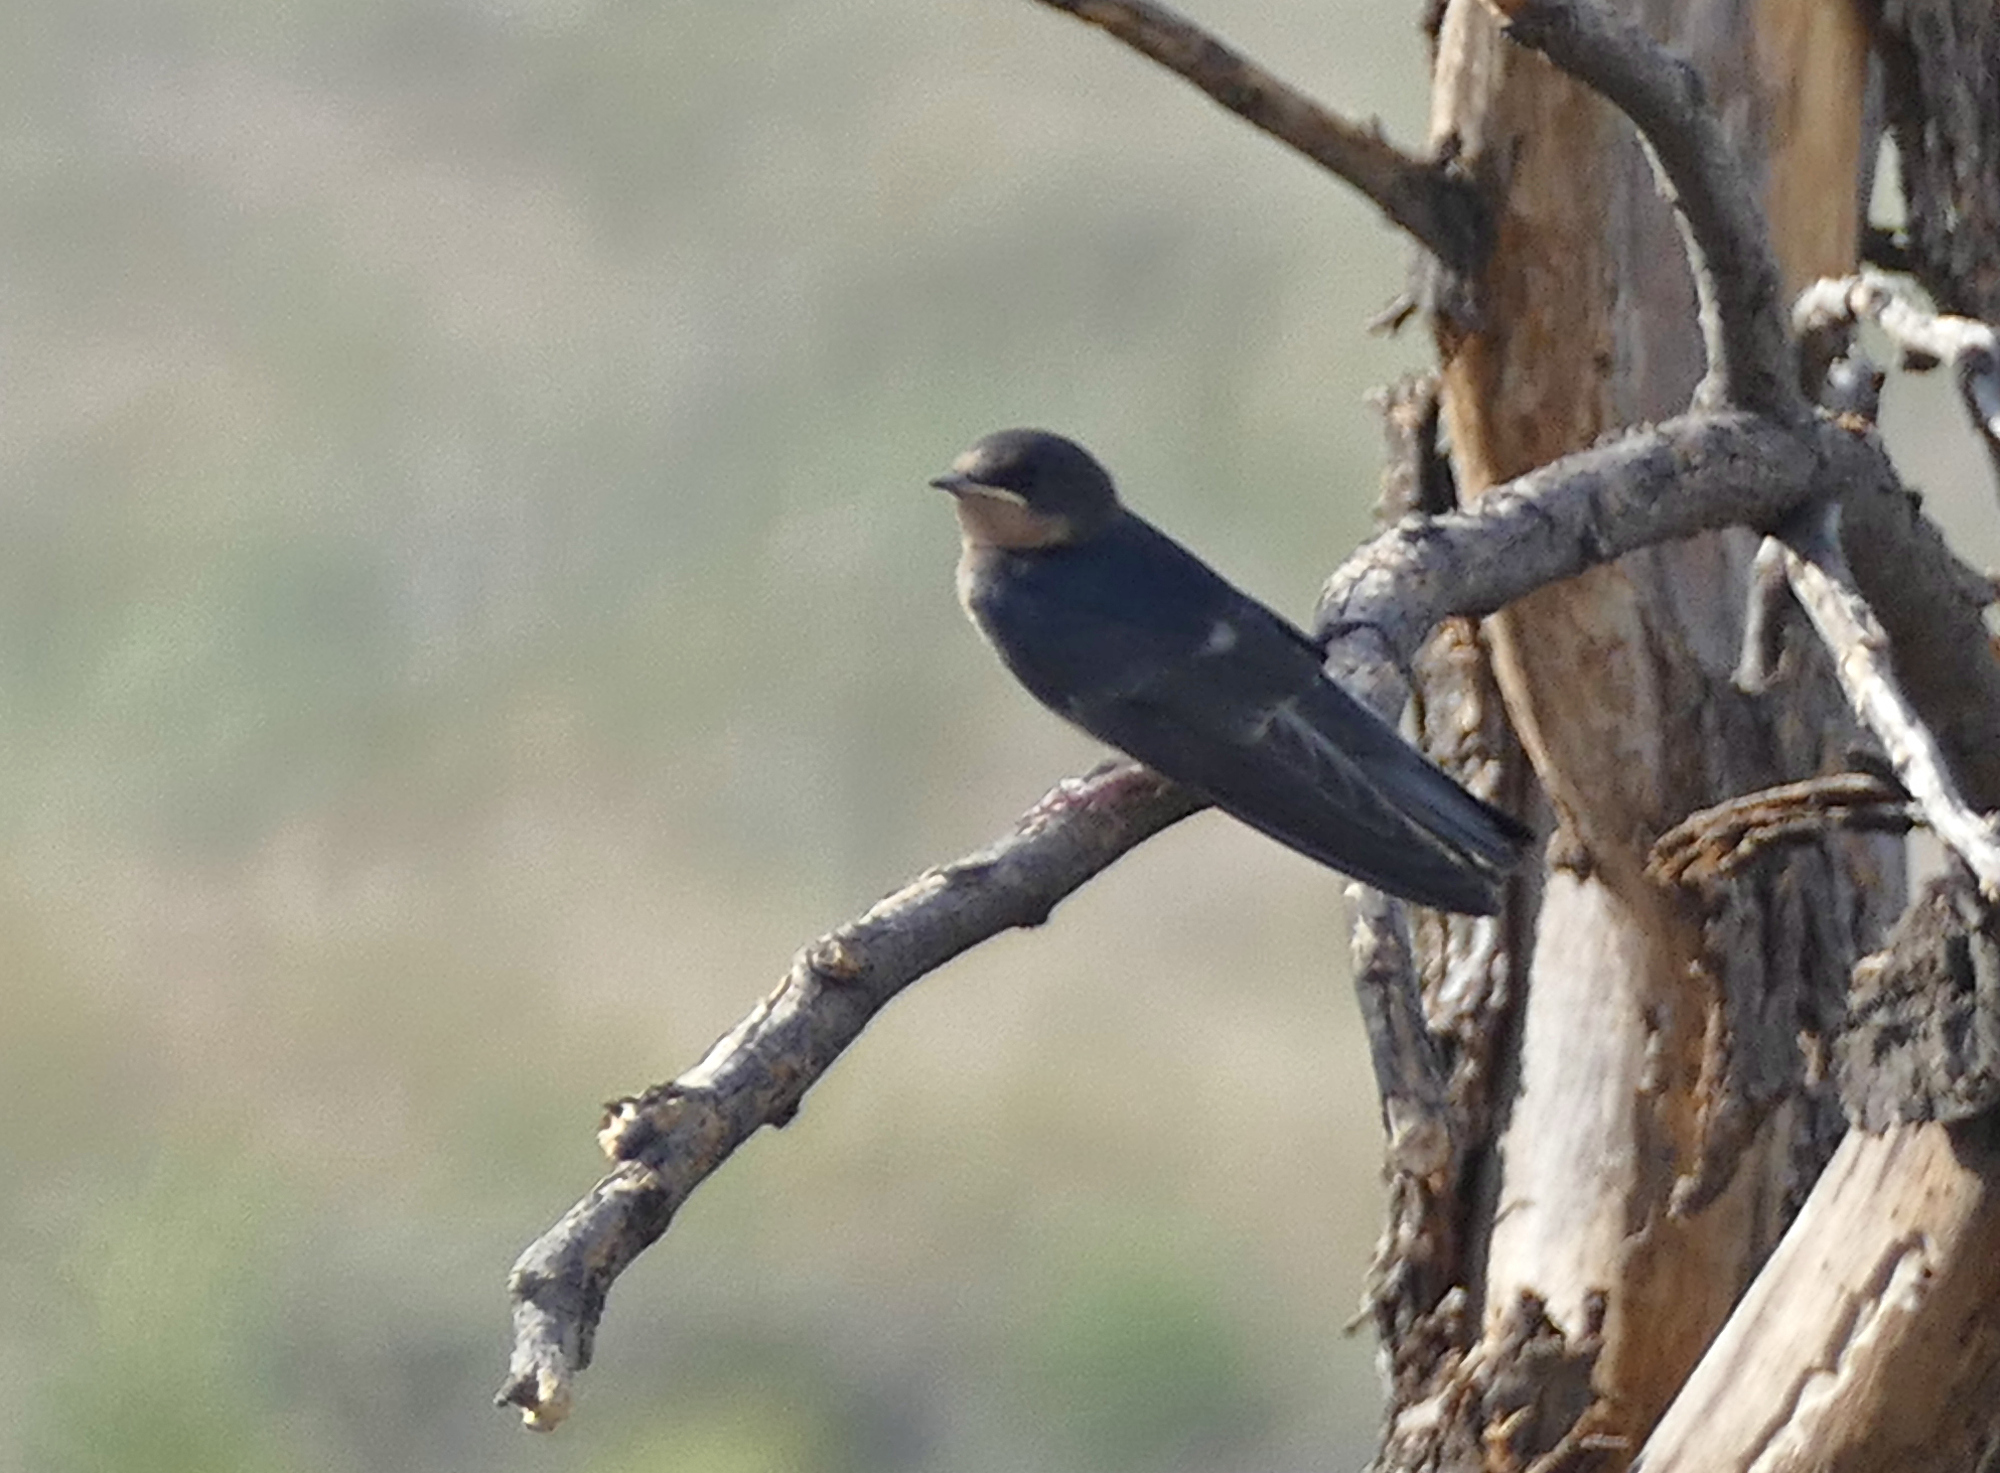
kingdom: Animalia
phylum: Chordata
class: Aves
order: Passeriformes
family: Hirundinidae
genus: Hirundo
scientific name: Hirundo rustica
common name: Barn swallow
